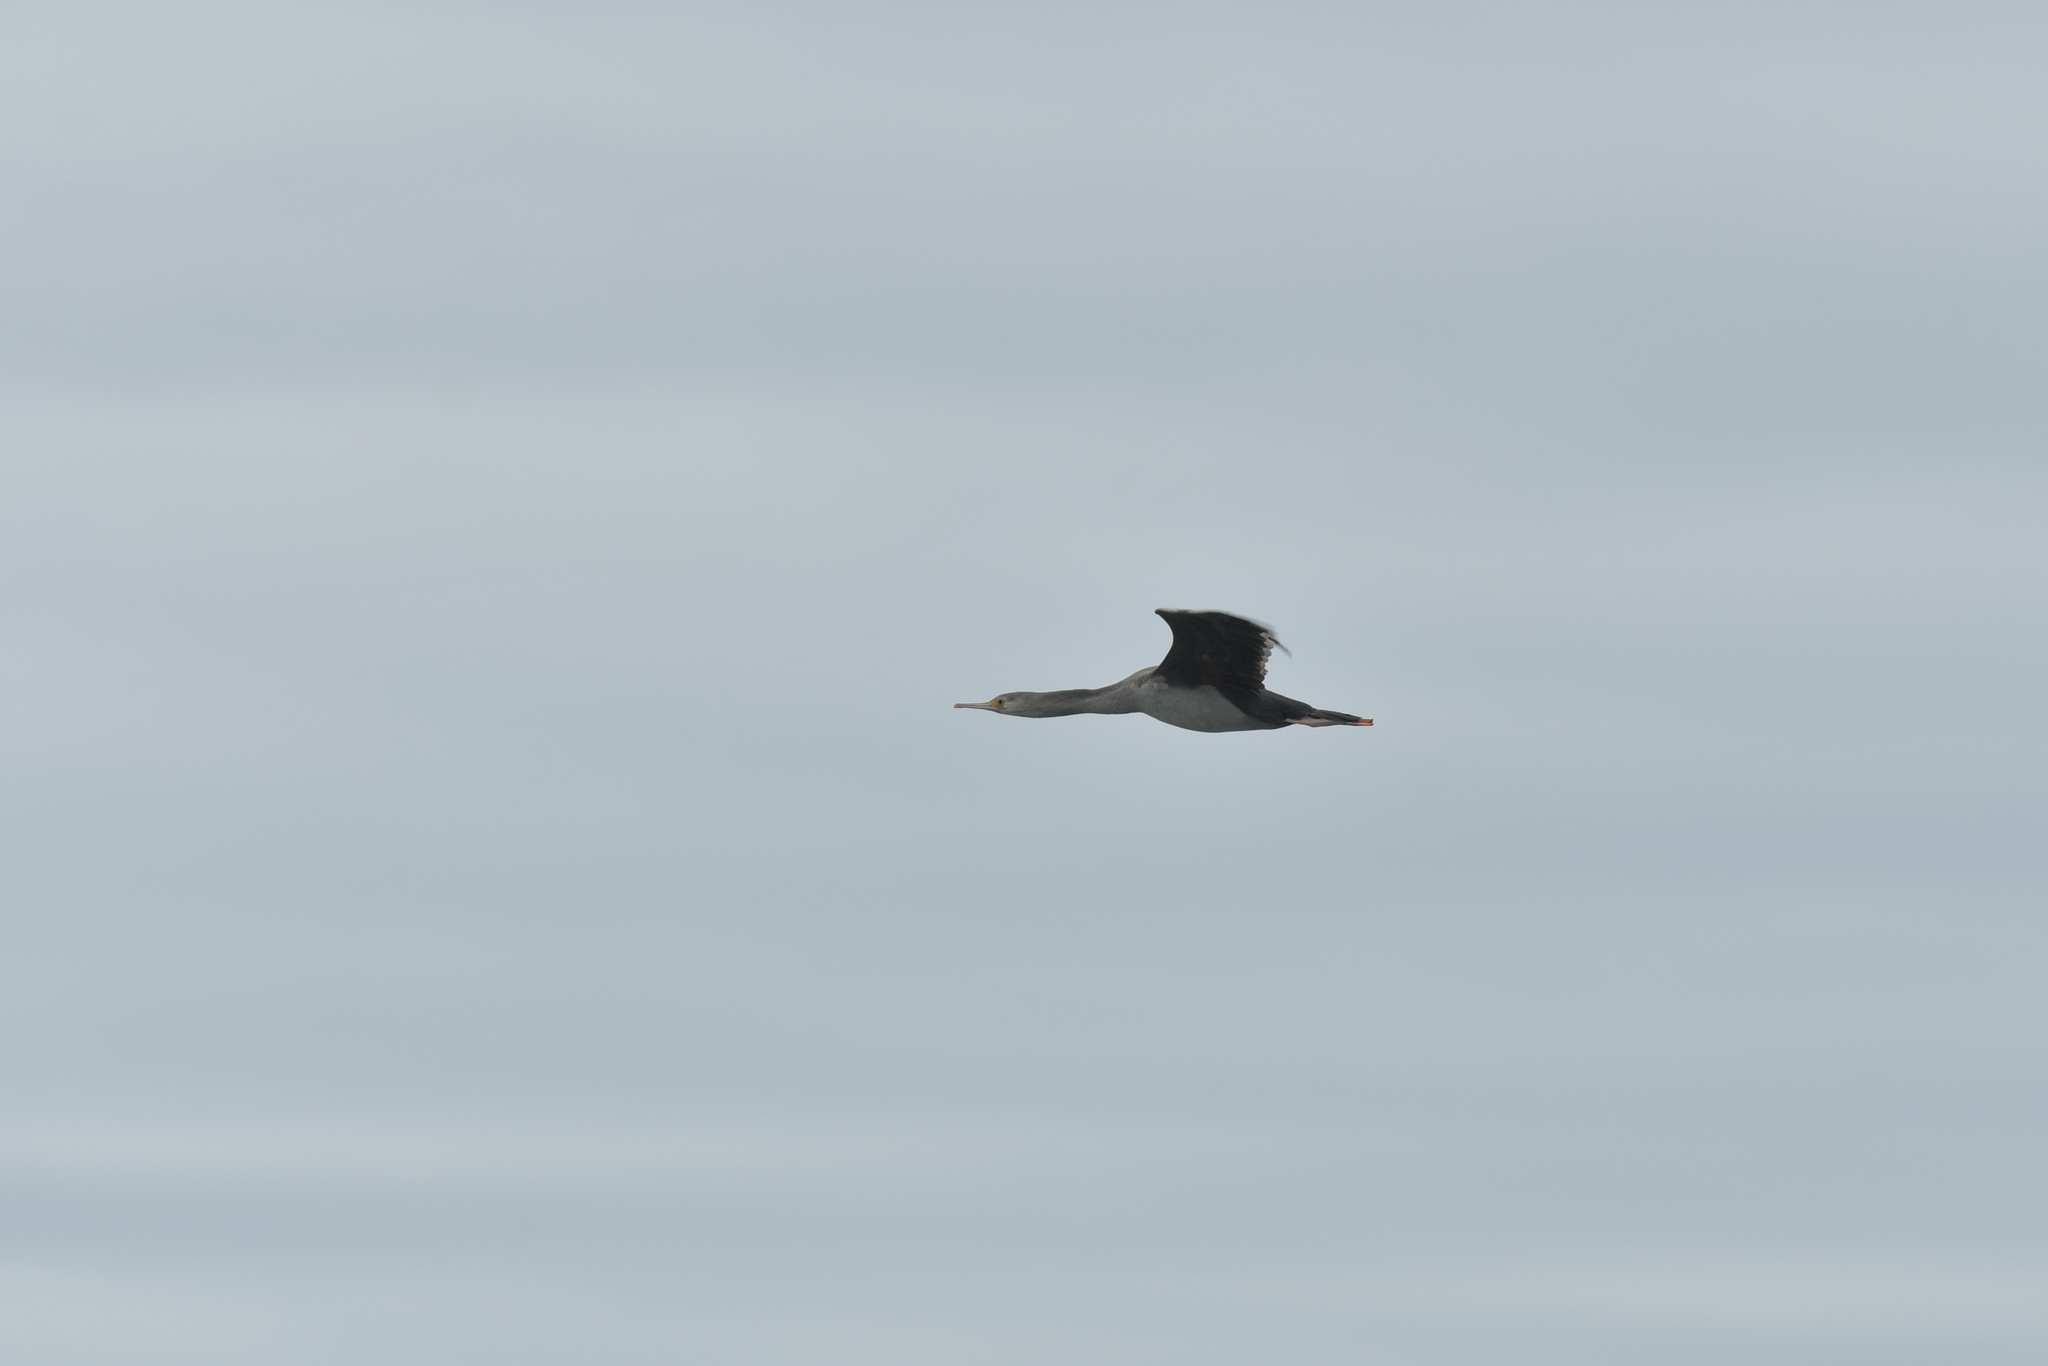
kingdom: Animalia
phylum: Chordata
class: Aves
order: Suliformes
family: Phalacrocoracidae
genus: Phalacrocorax
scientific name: Phalacrocorax punctatus
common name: Spotted shag
